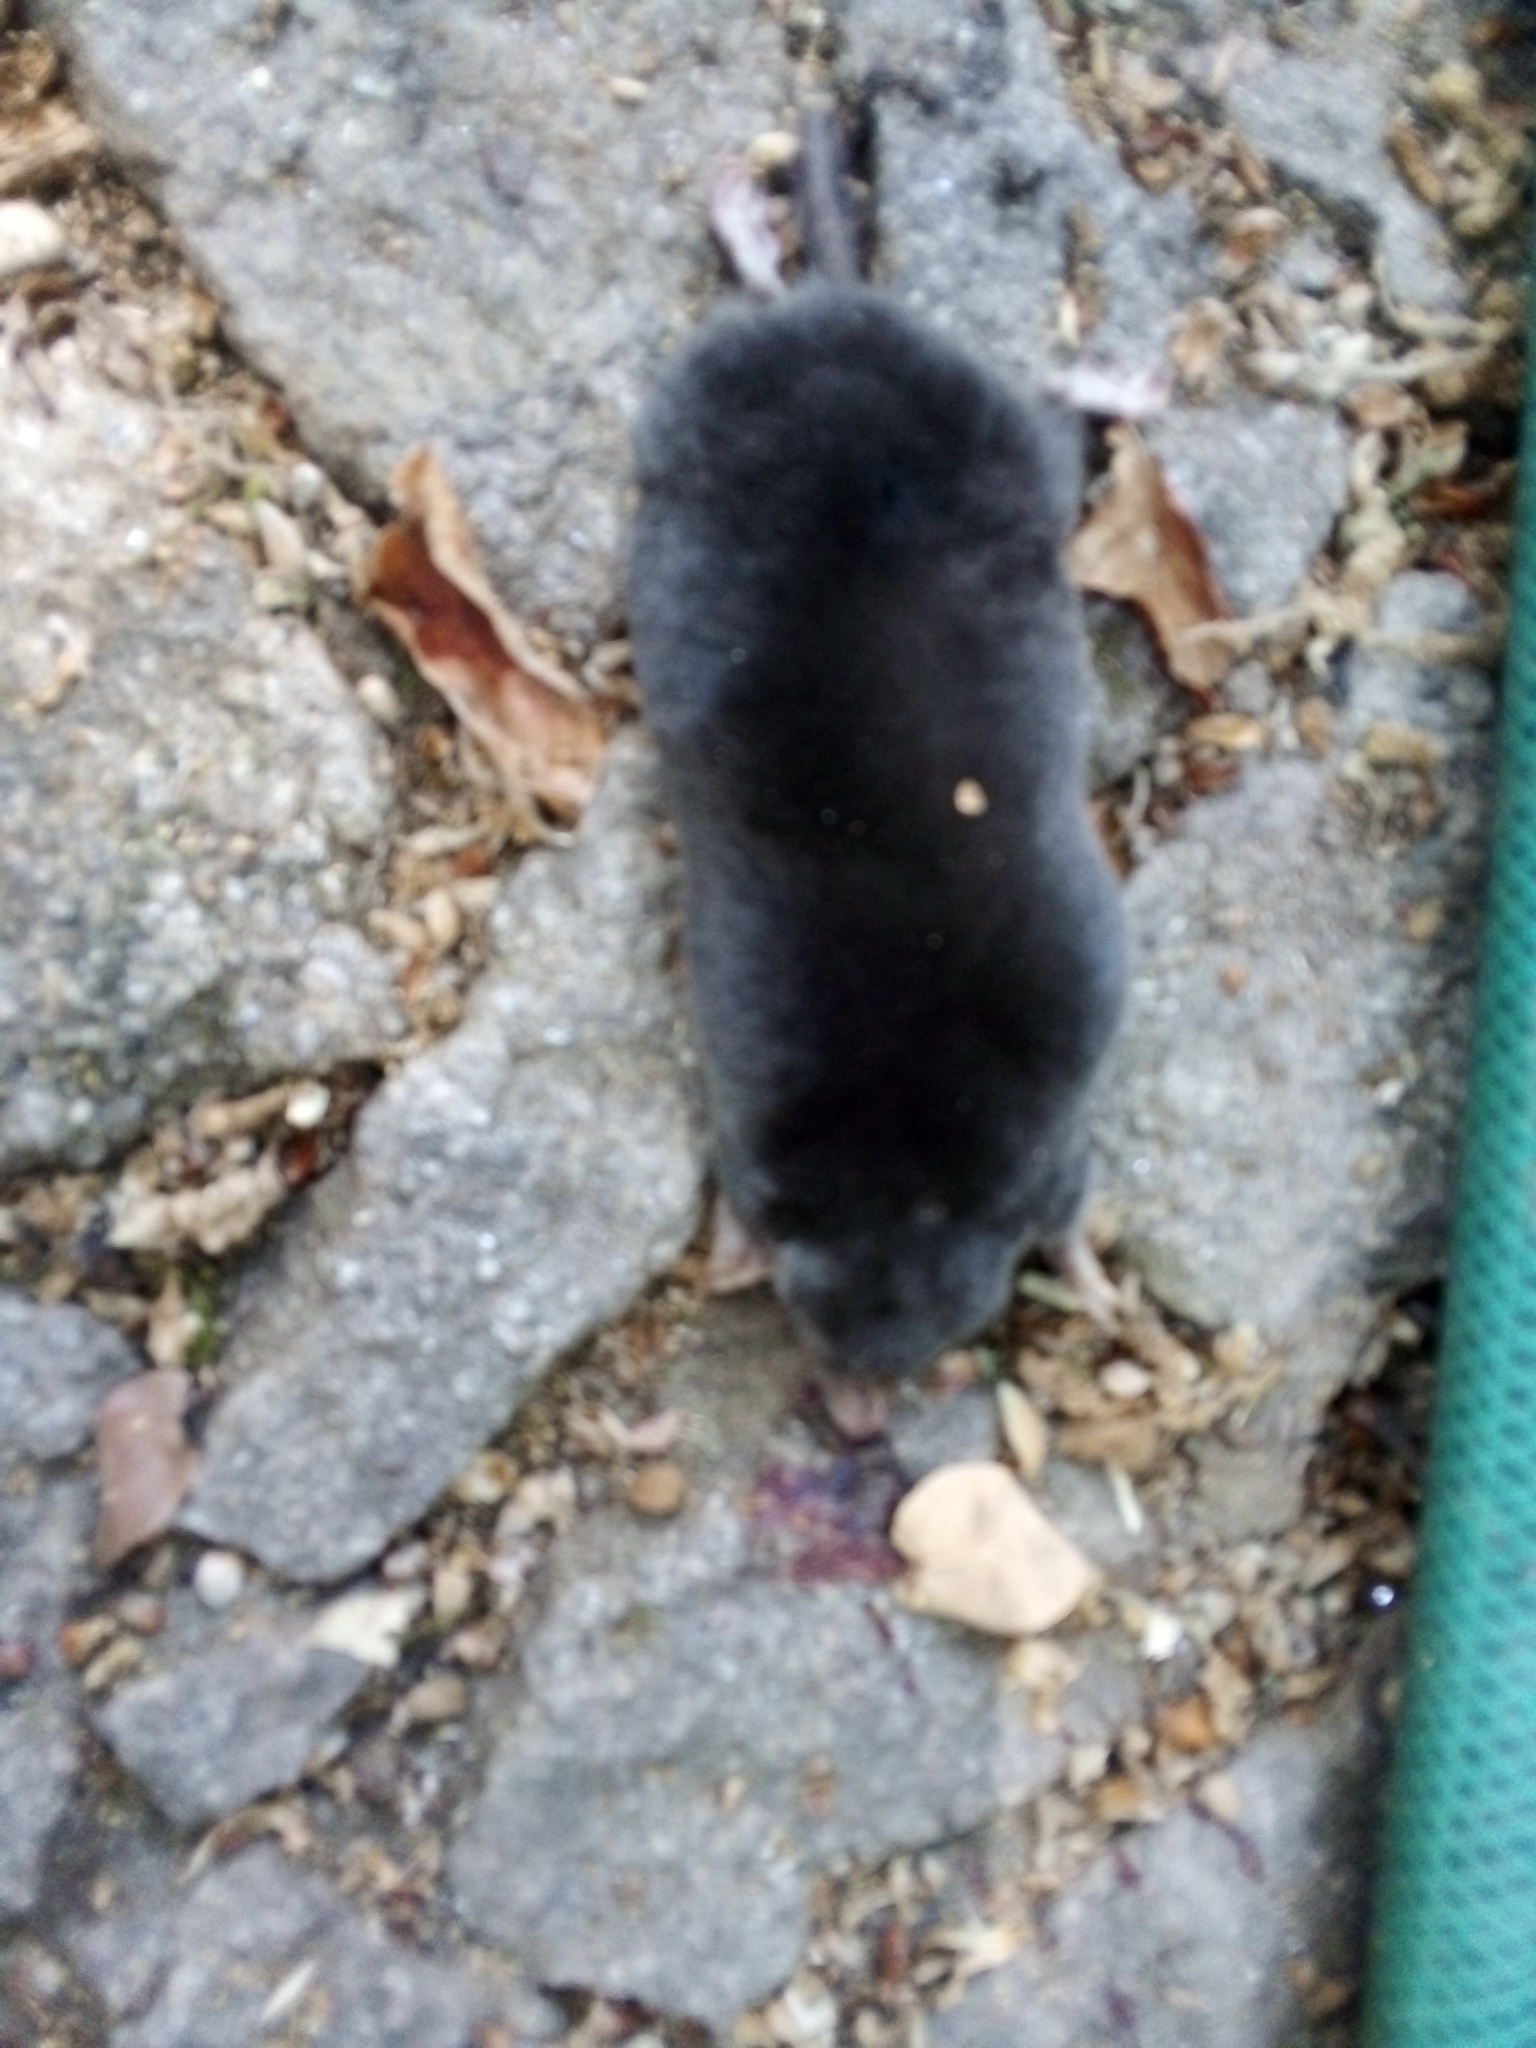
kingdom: Animalia
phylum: Chordata
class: Mammalia
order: Soricomorpha
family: Talpidae
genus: Talpa
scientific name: Talpa occidentalis
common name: Iberian mole
